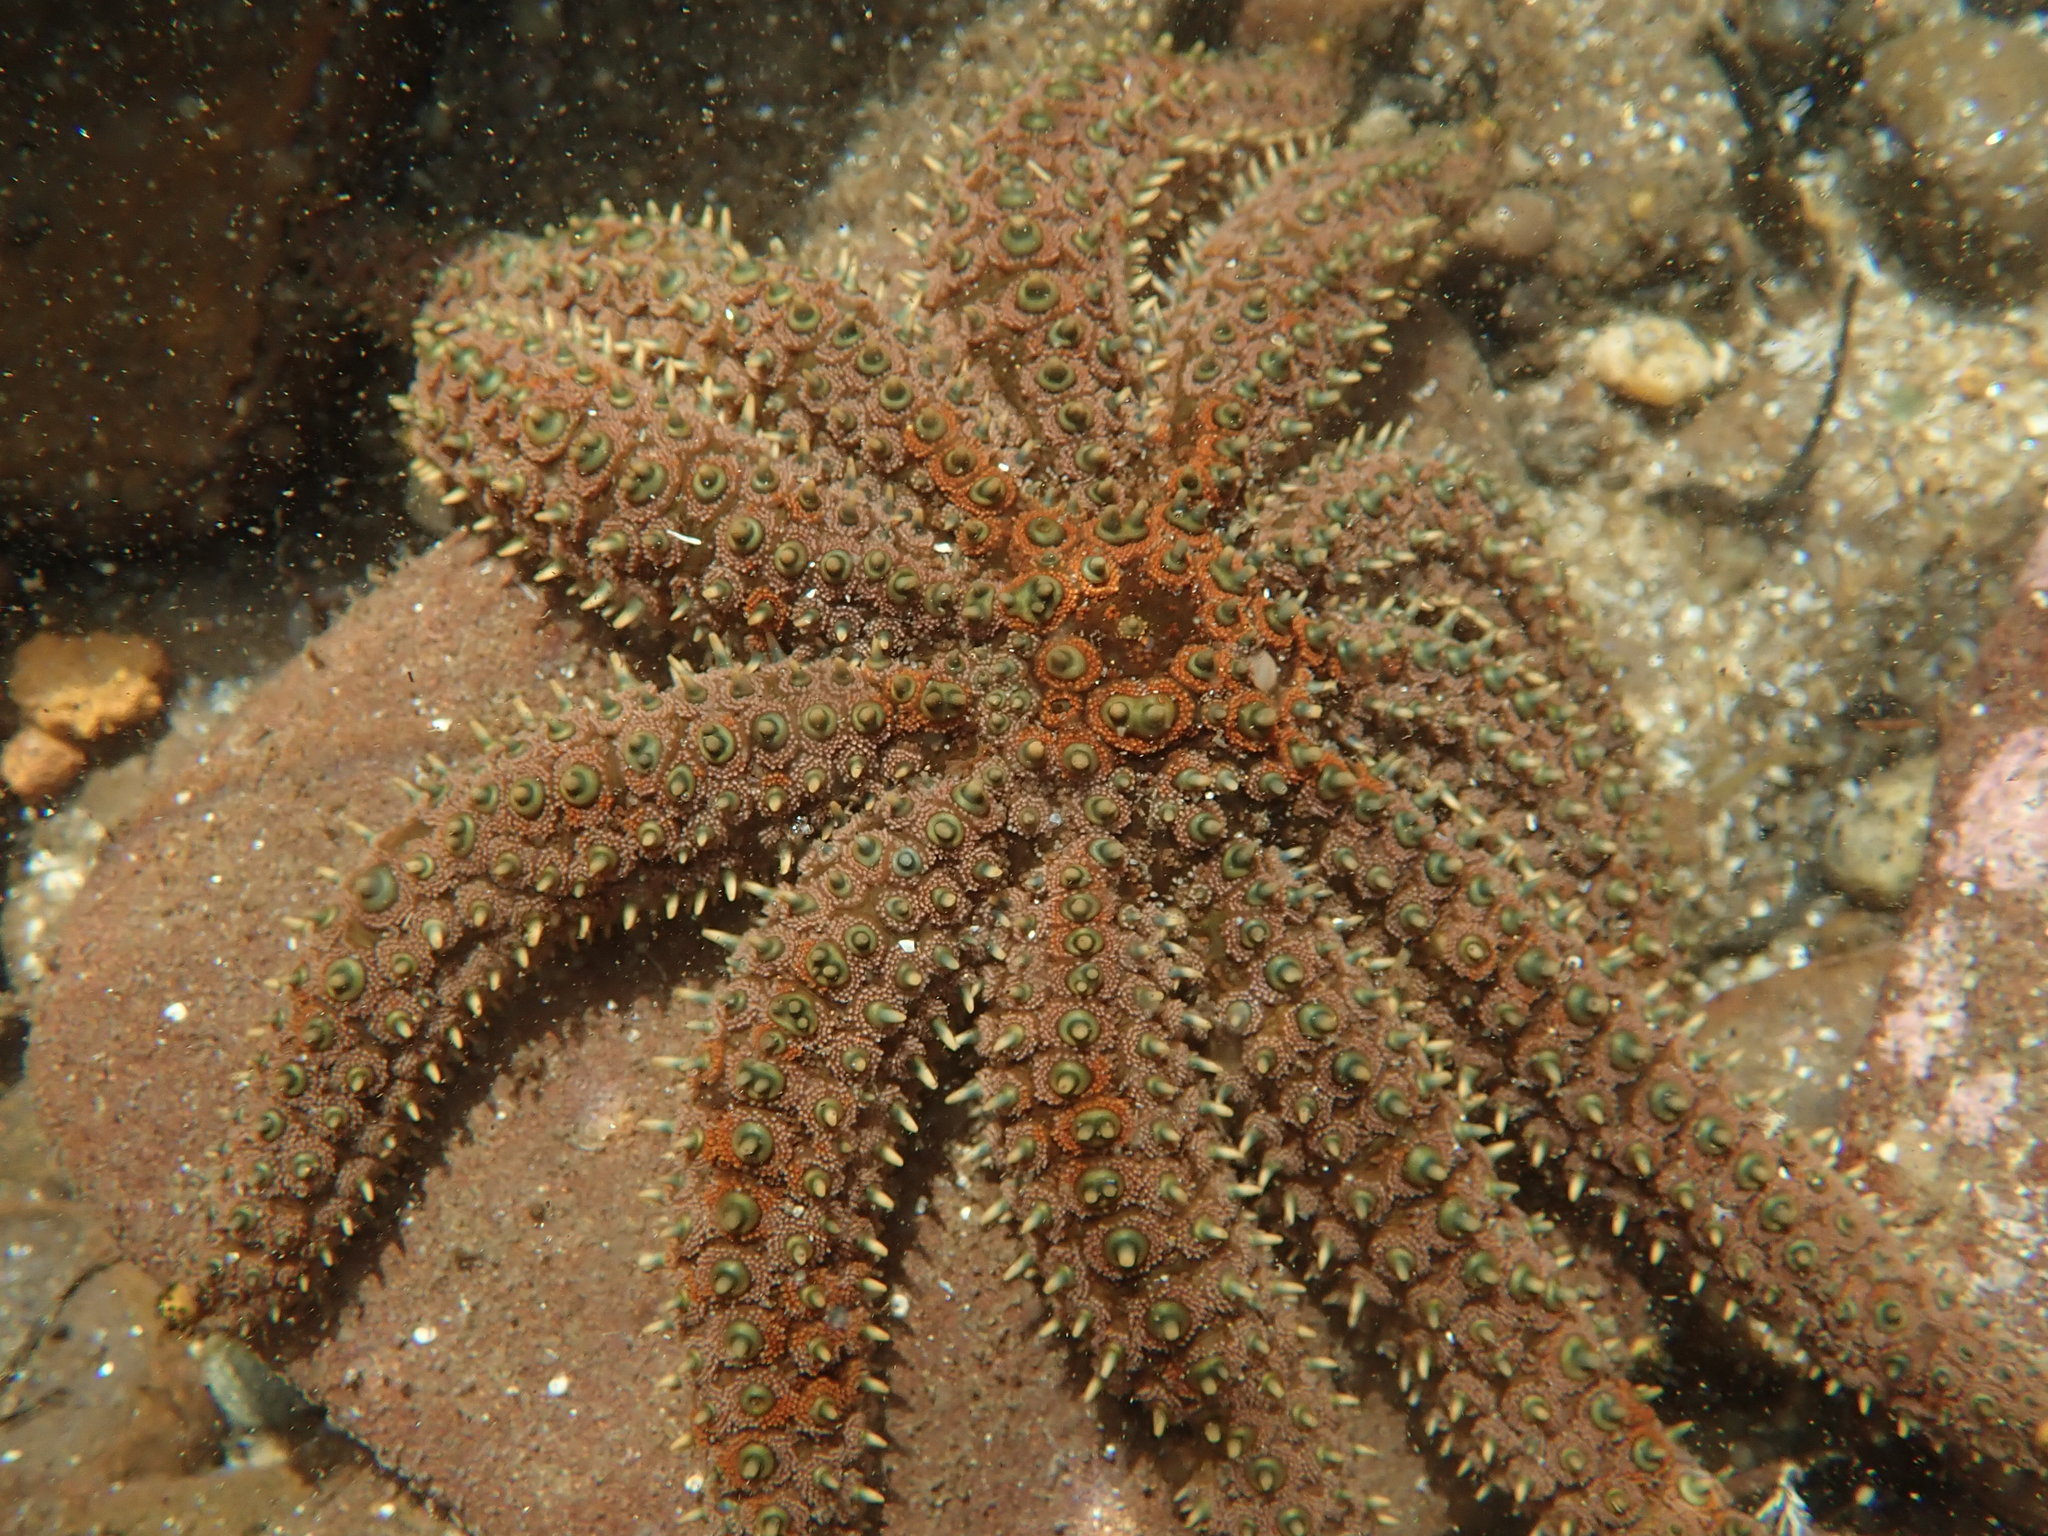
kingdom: Animalia
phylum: Echinodermata
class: Asteroidea
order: Forcipulatida
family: Asteriidae
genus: Coscinasterias
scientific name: Coscinasterias muricata
